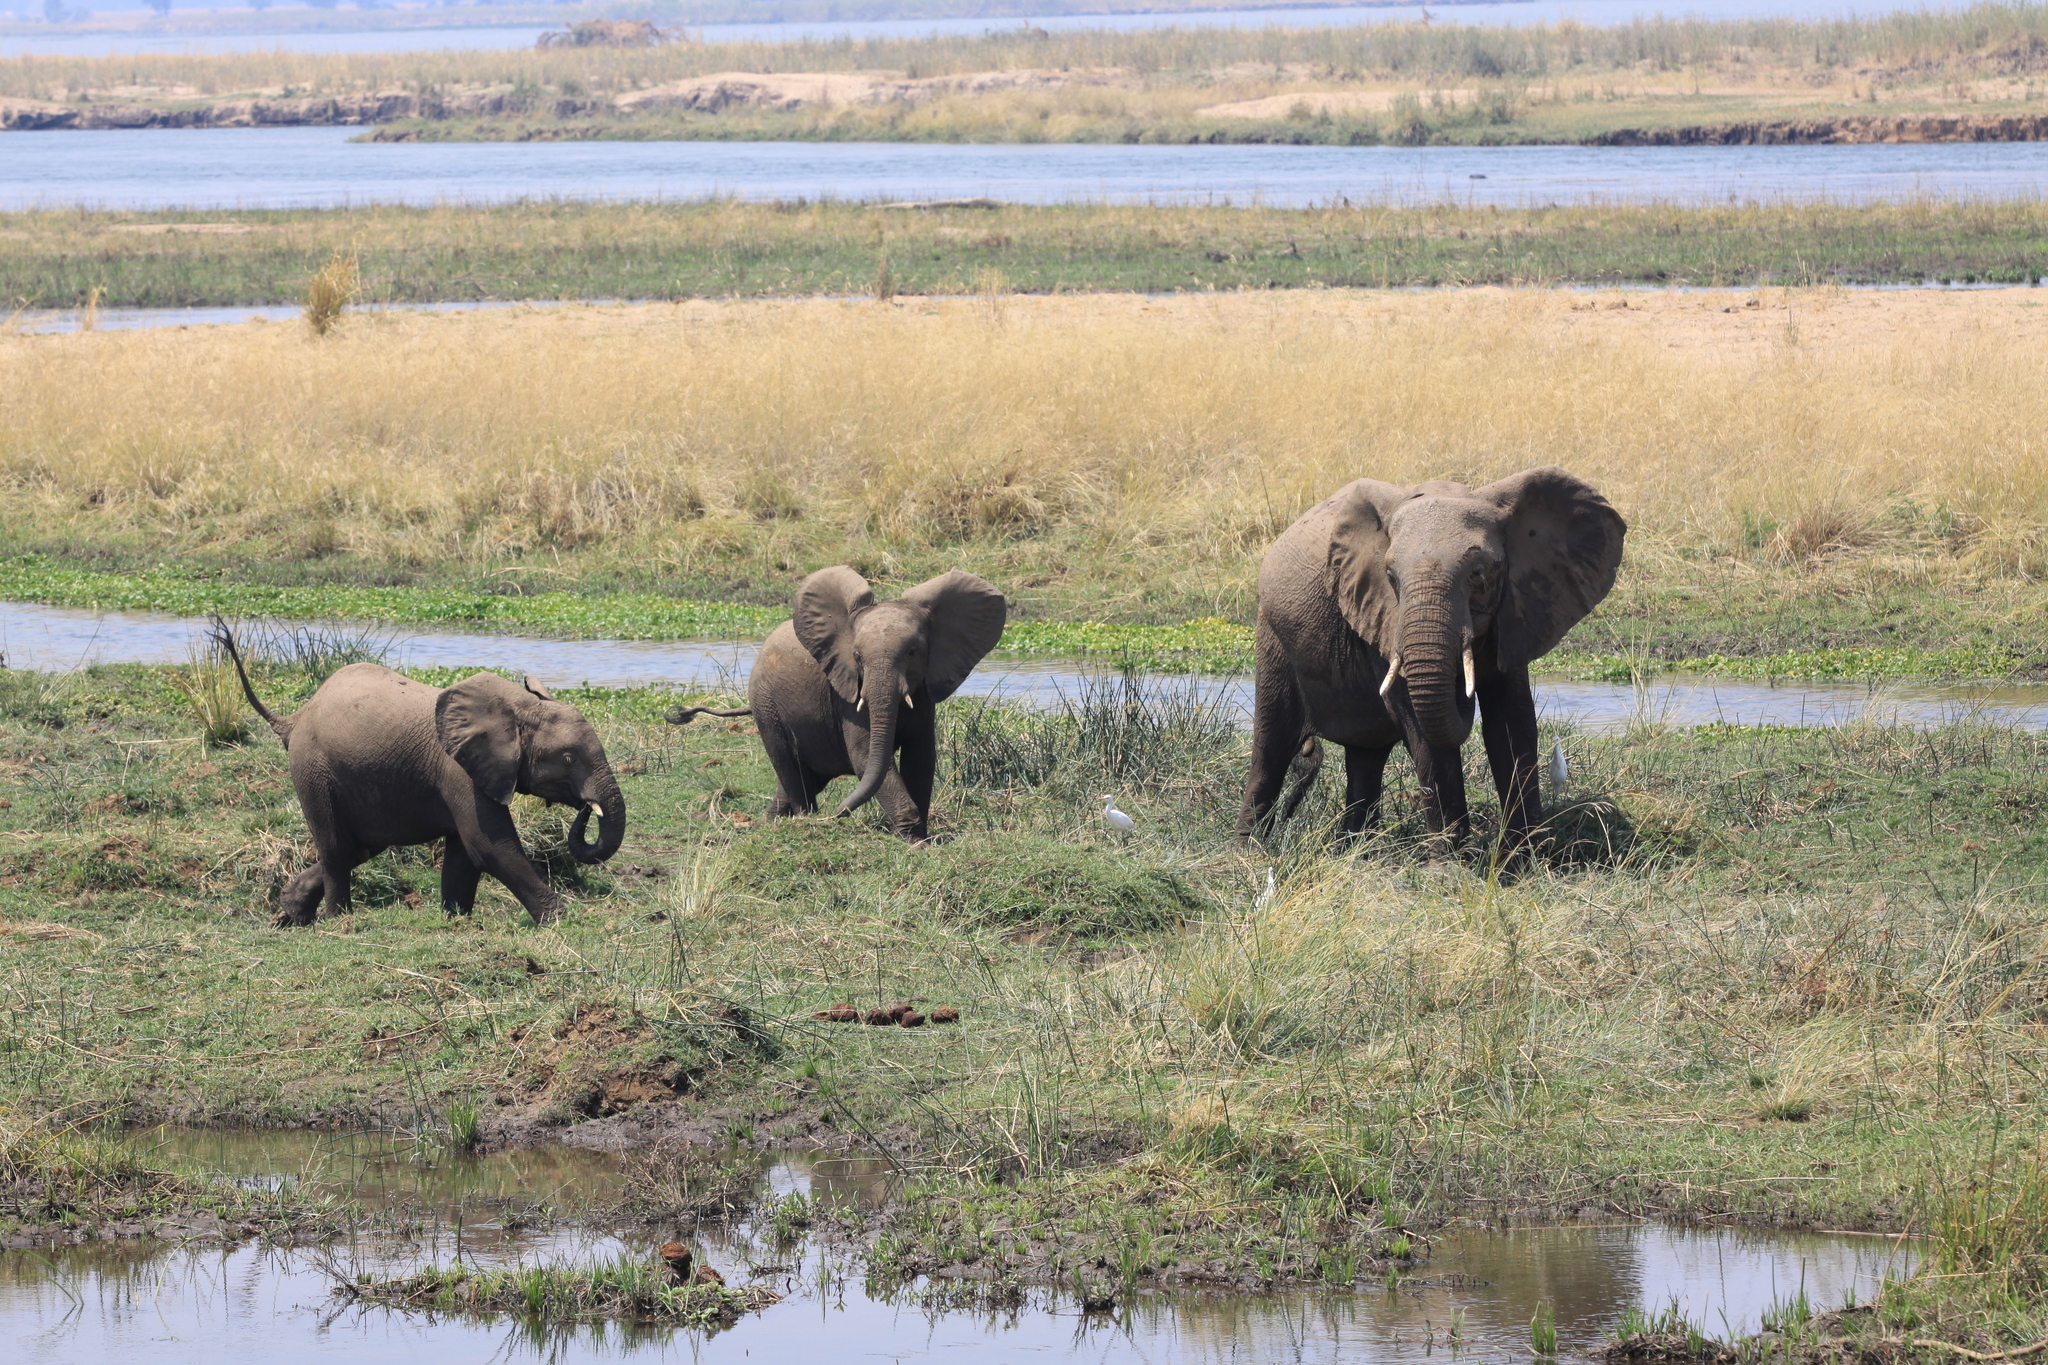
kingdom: Animalia
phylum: Chordata
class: Mammalia
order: Proboscidea
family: Elephantidae
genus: Loxodonta
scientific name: Loxodonta africana
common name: African elephant
